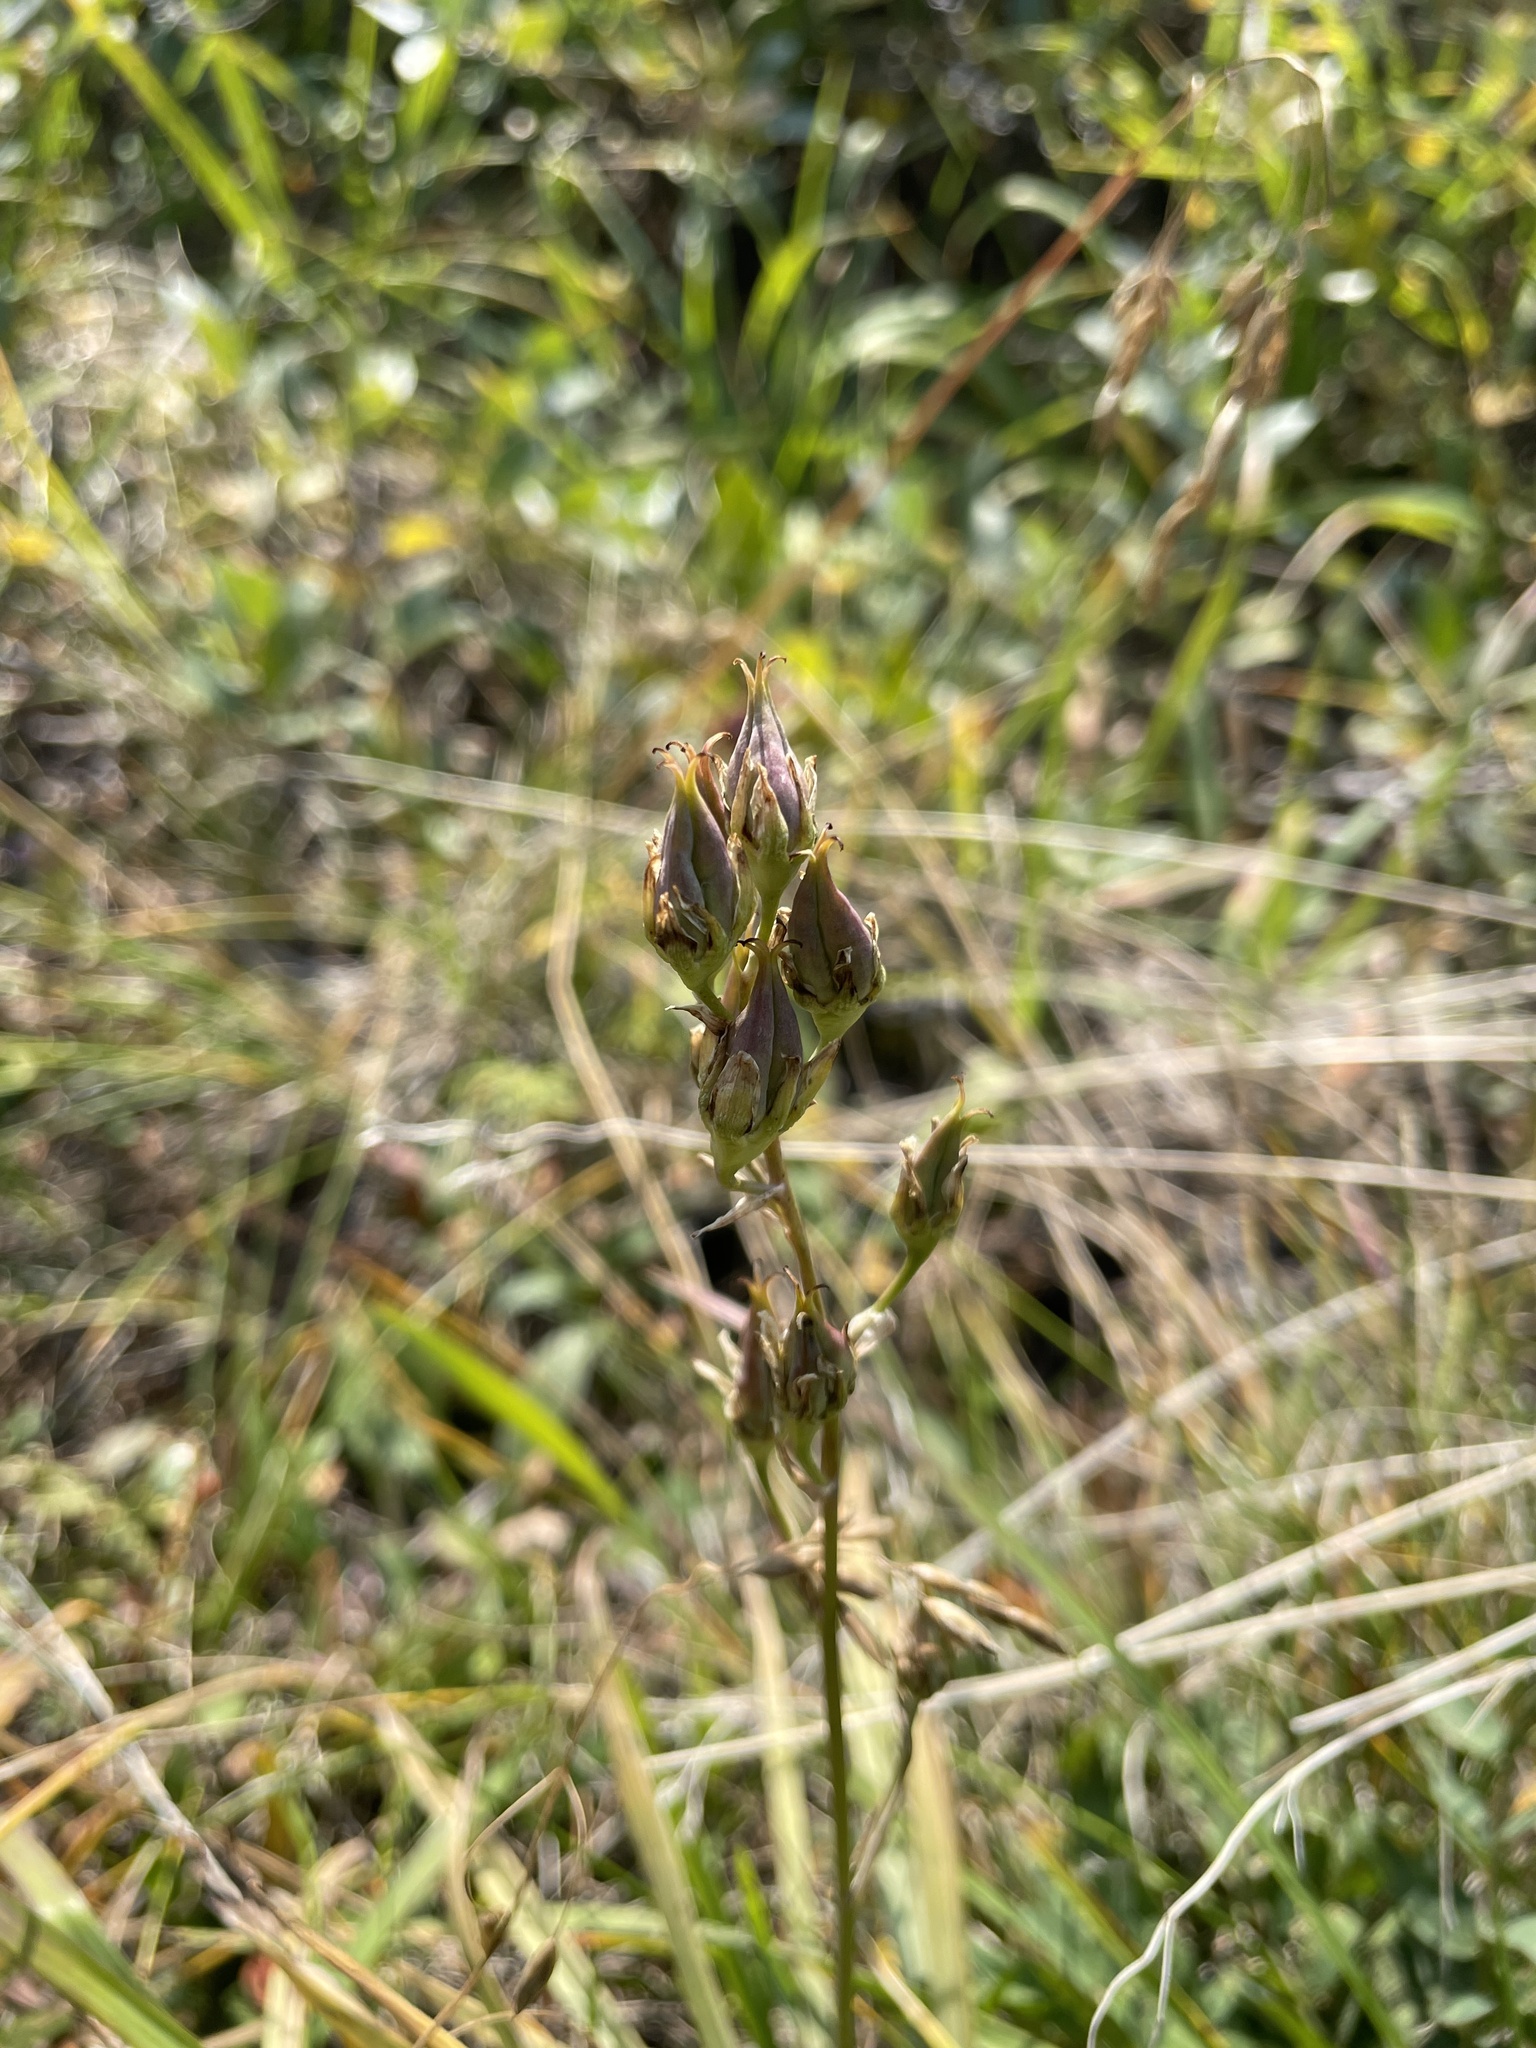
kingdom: Plantae
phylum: Tracheophyta
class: Liliopsida
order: Liliales
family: Melanthiaceae
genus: Anticlea
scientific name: Anticlea elegans
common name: Mountain death camas
